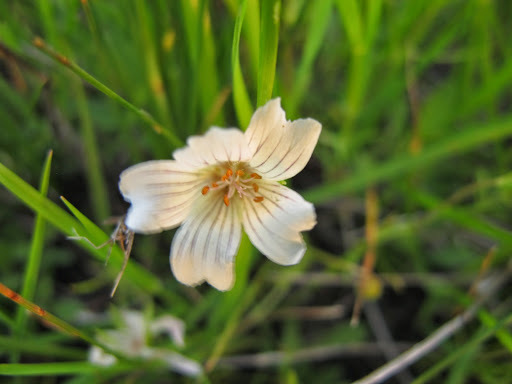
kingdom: Plantae
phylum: Tracheophyta
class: Magnoliopsida
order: Brassicales
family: Limnanthaceae
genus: Limnanthes
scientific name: Limnanthes douglasii
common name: Meadow-foam
